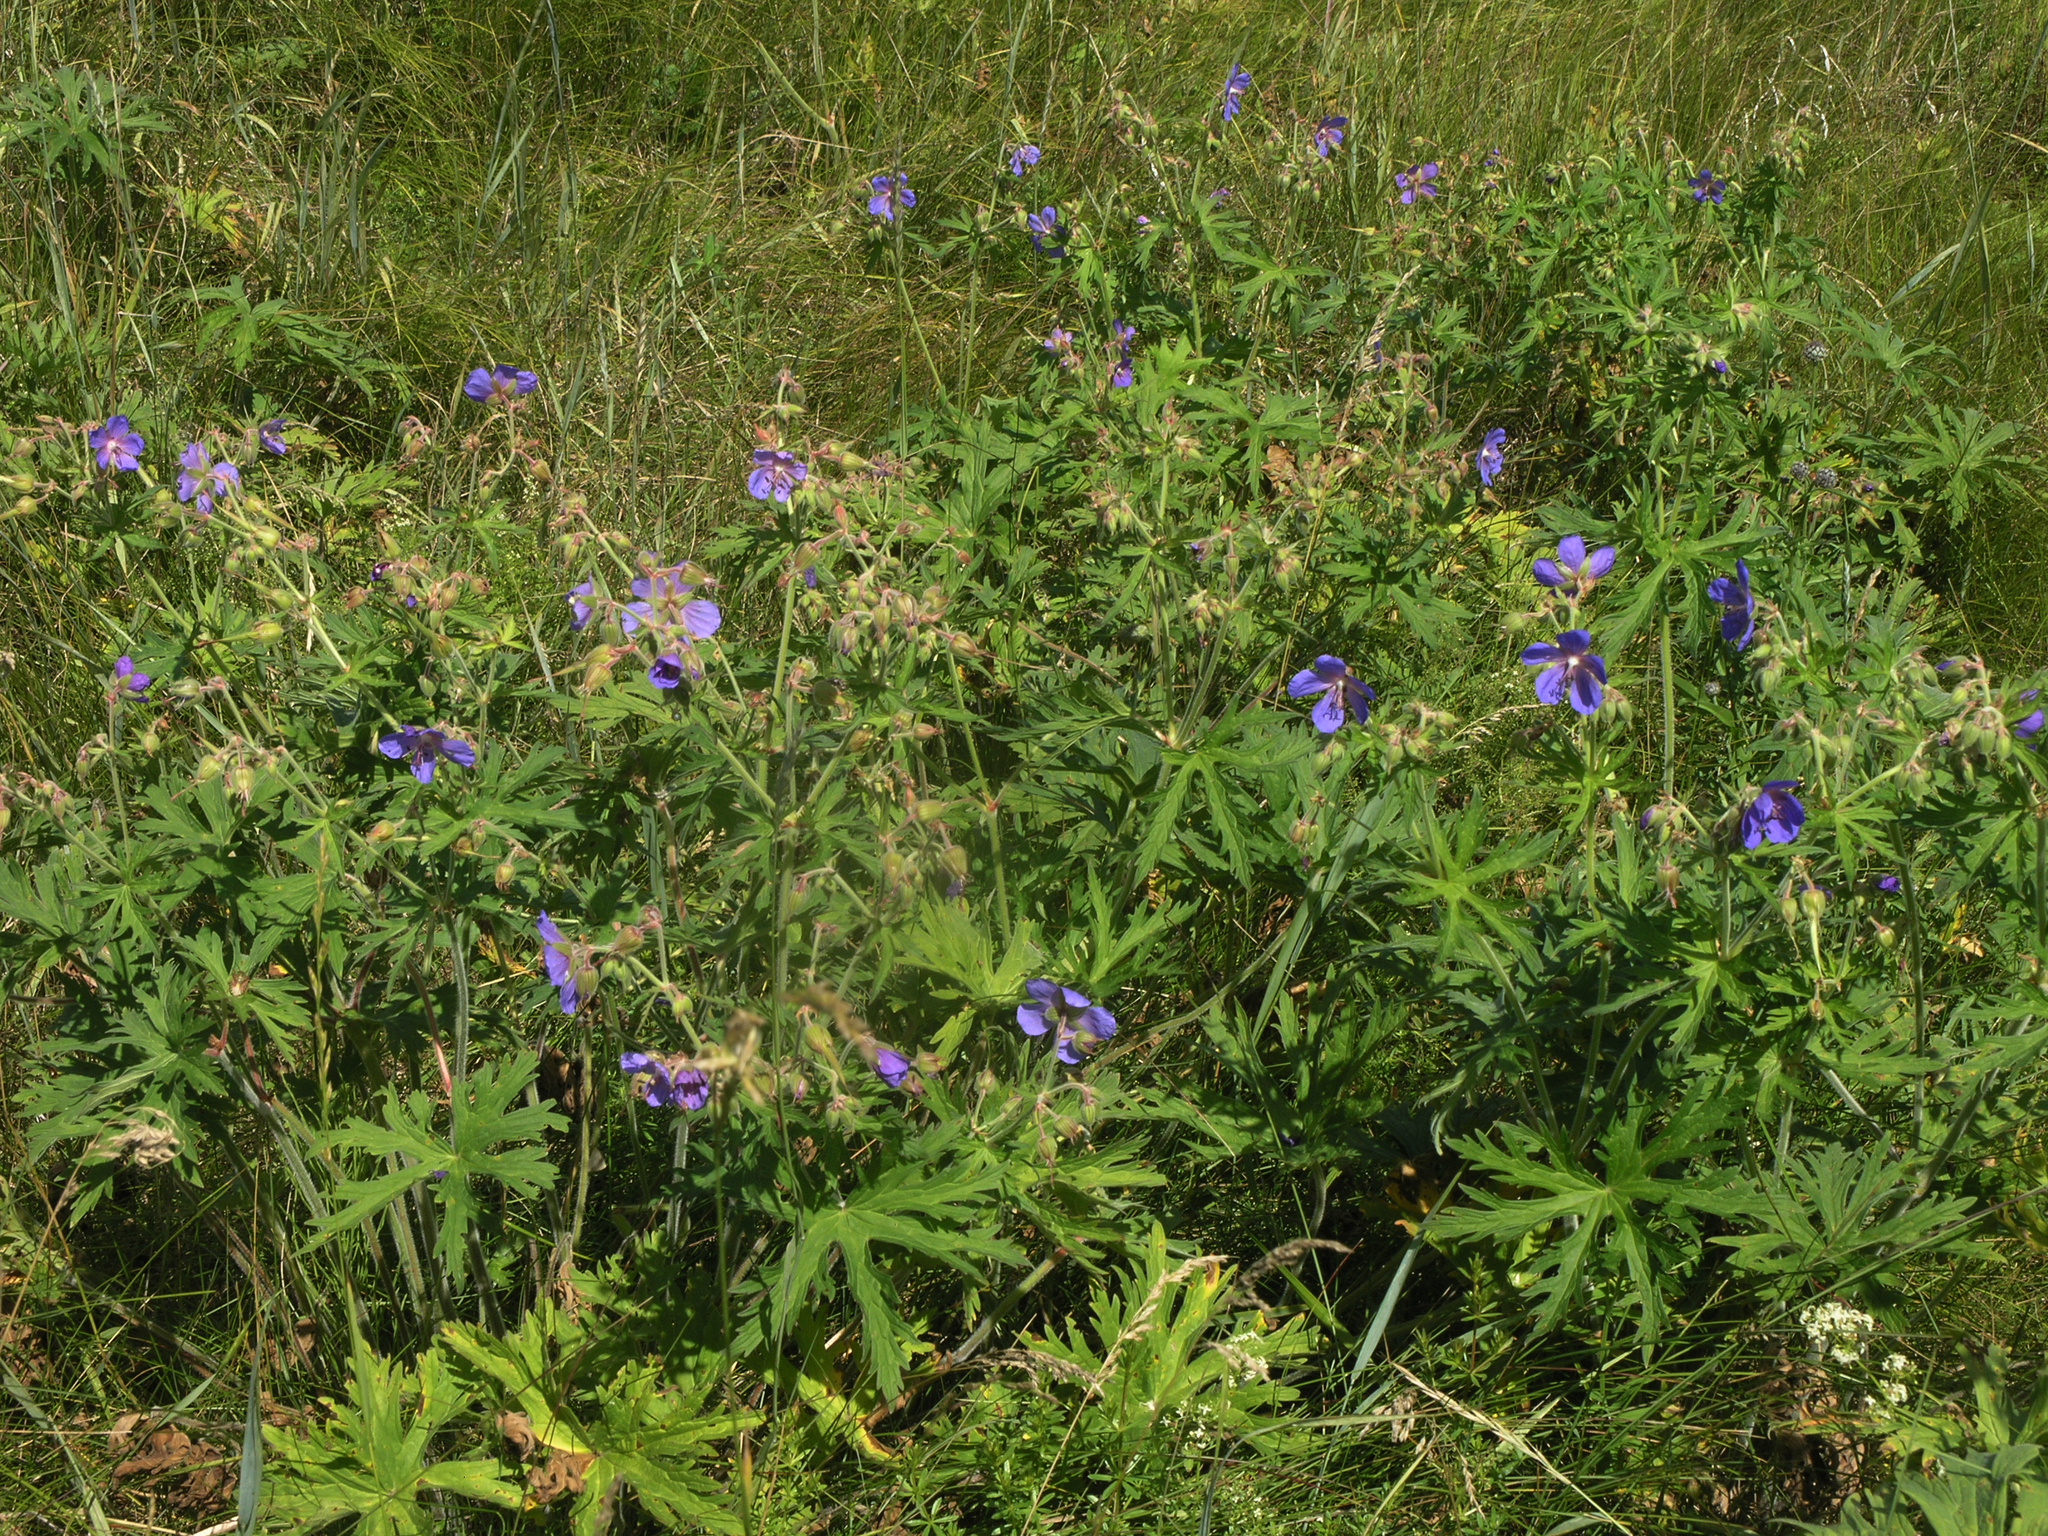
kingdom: Plantae
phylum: Tracheophyta
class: Magnoliopsida
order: Geraniales
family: Geraniaceae
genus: Geranium
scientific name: Geranium pratense
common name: Meadow crane's-bill
